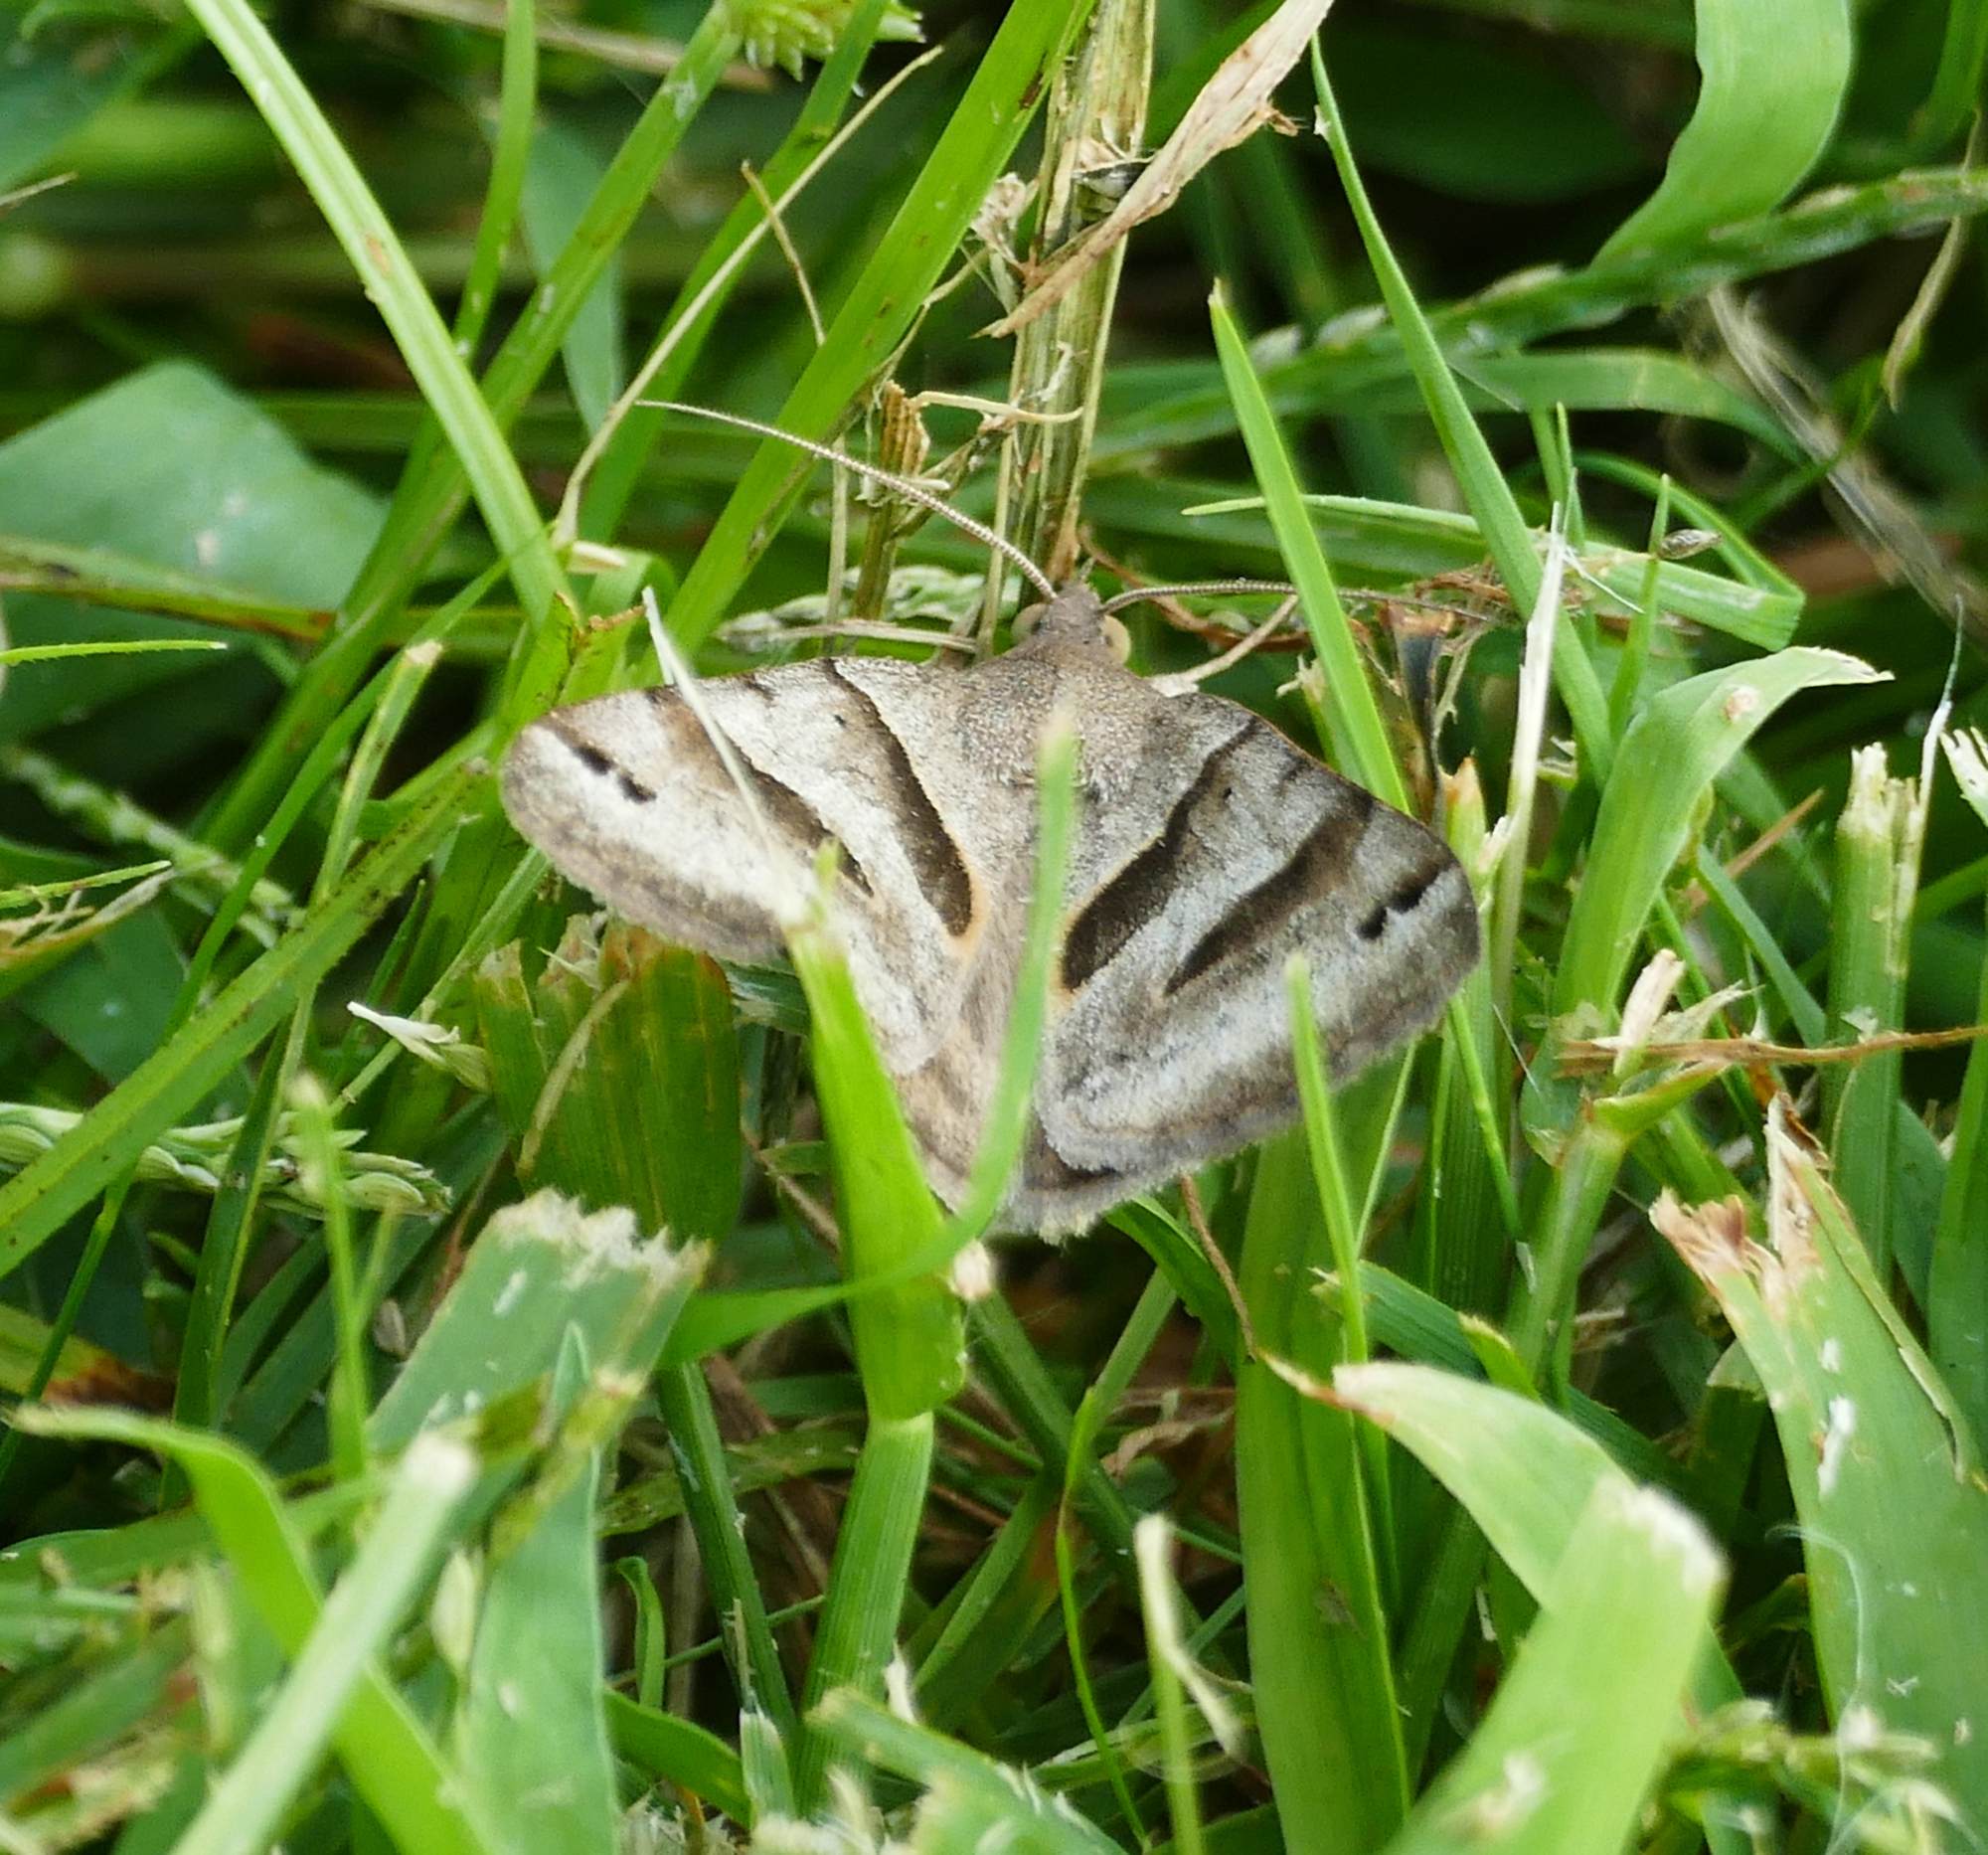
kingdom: Animalia
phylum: Arthropoda
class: Insecta
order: Lepidoptera
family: Erebidae
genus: Caenurgina
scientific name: Caenurgina erechtea
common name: Forage looper moth
